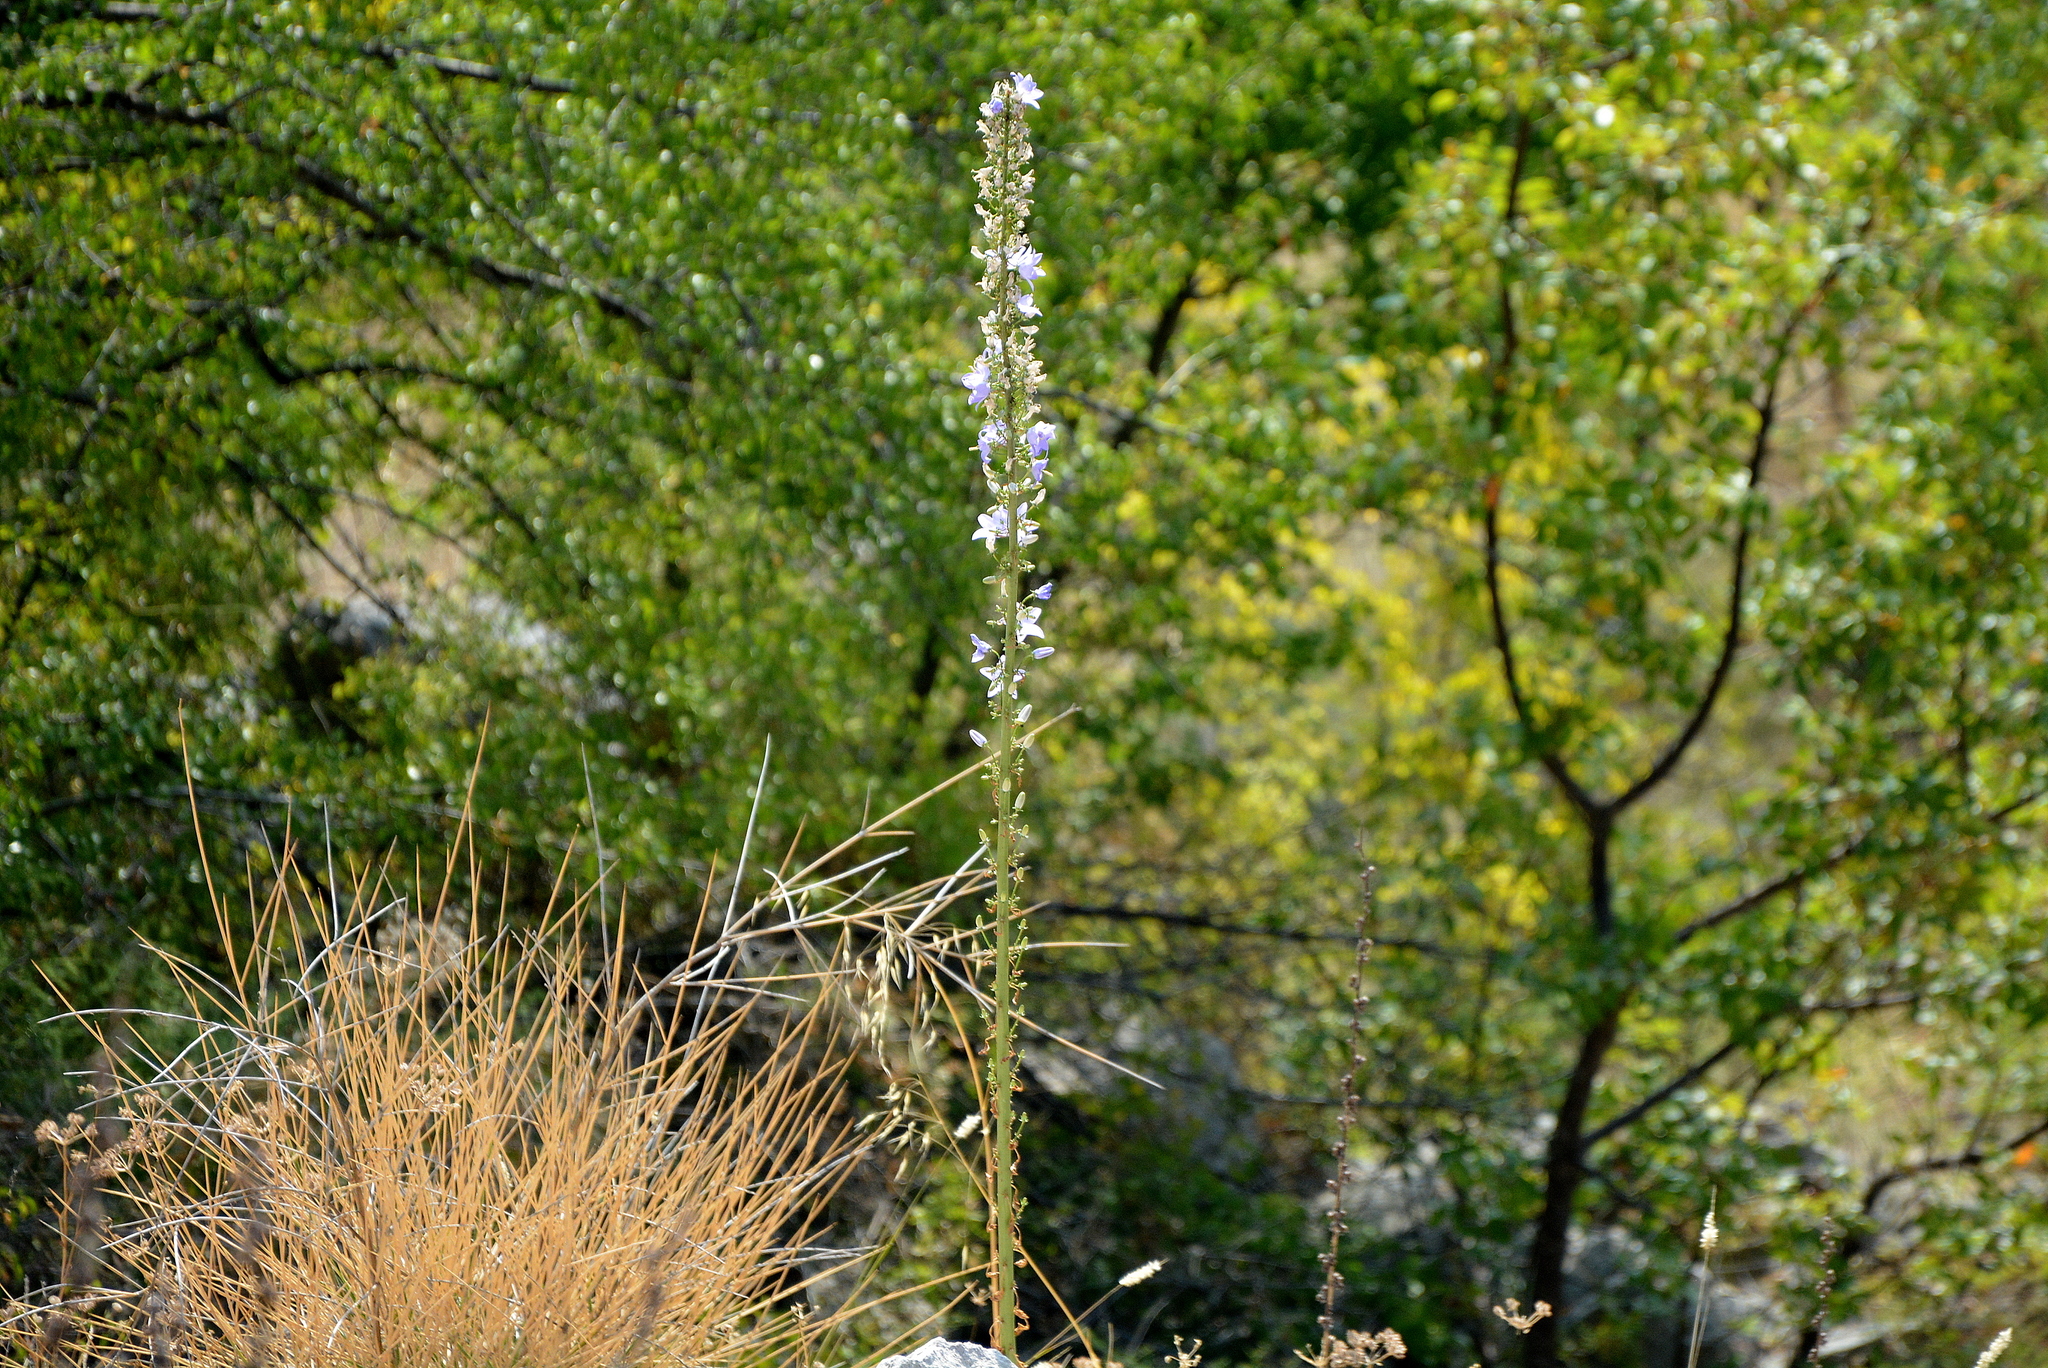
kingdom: Plantae
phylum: Tracheophyta
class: Magnoliopsida
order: Asterales
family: Campanulaceae
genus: Campanula
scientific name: Campanula pyramidalis
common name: Chimney bellflower
